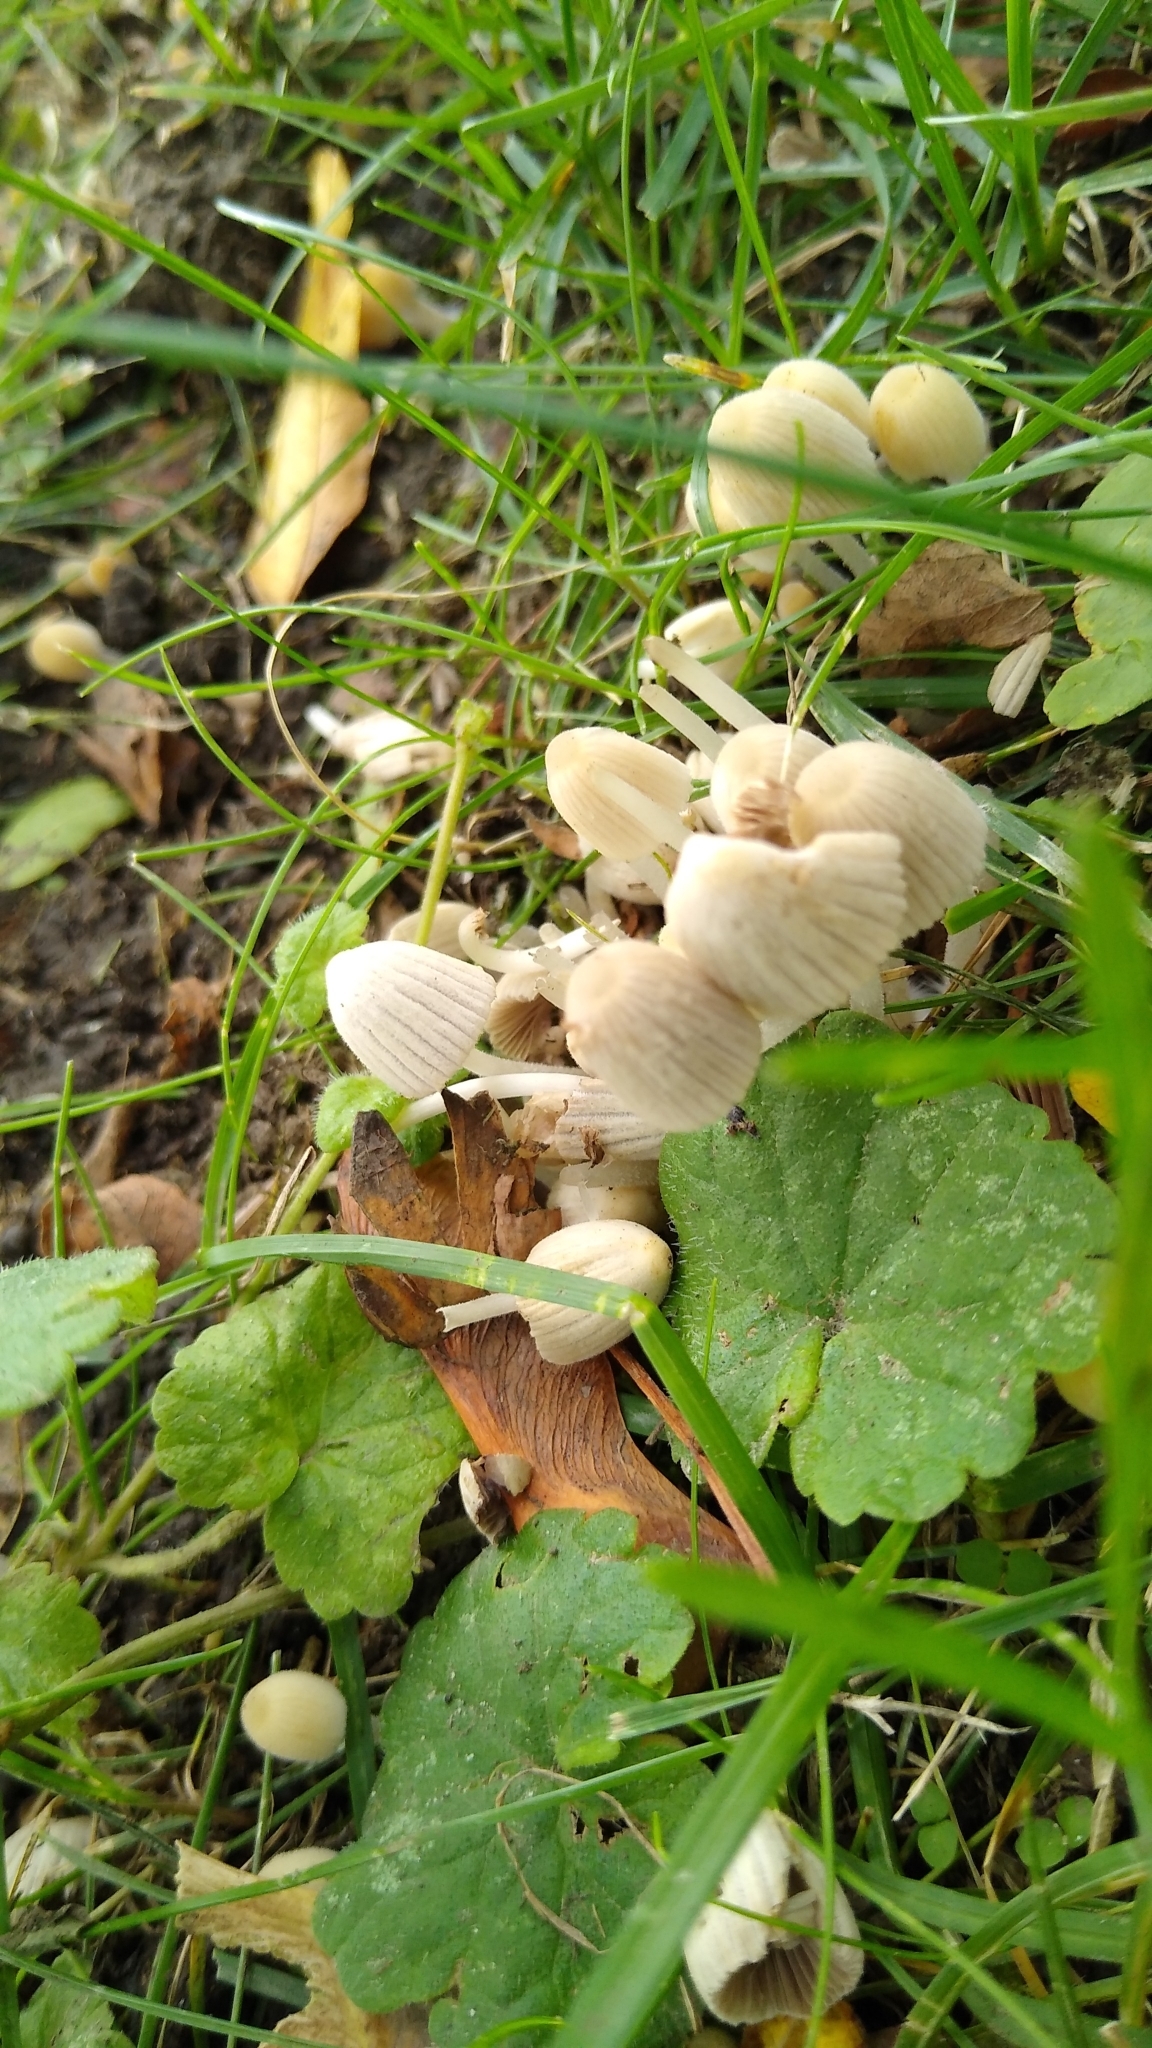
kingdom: Fungi
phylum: Basidiomycota
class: Agaricomycetes
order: Agaricales
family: Psathyrellaceae
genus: Coprinellus
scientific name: Coprinellus disseminatus
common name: Fairies' bonnets
